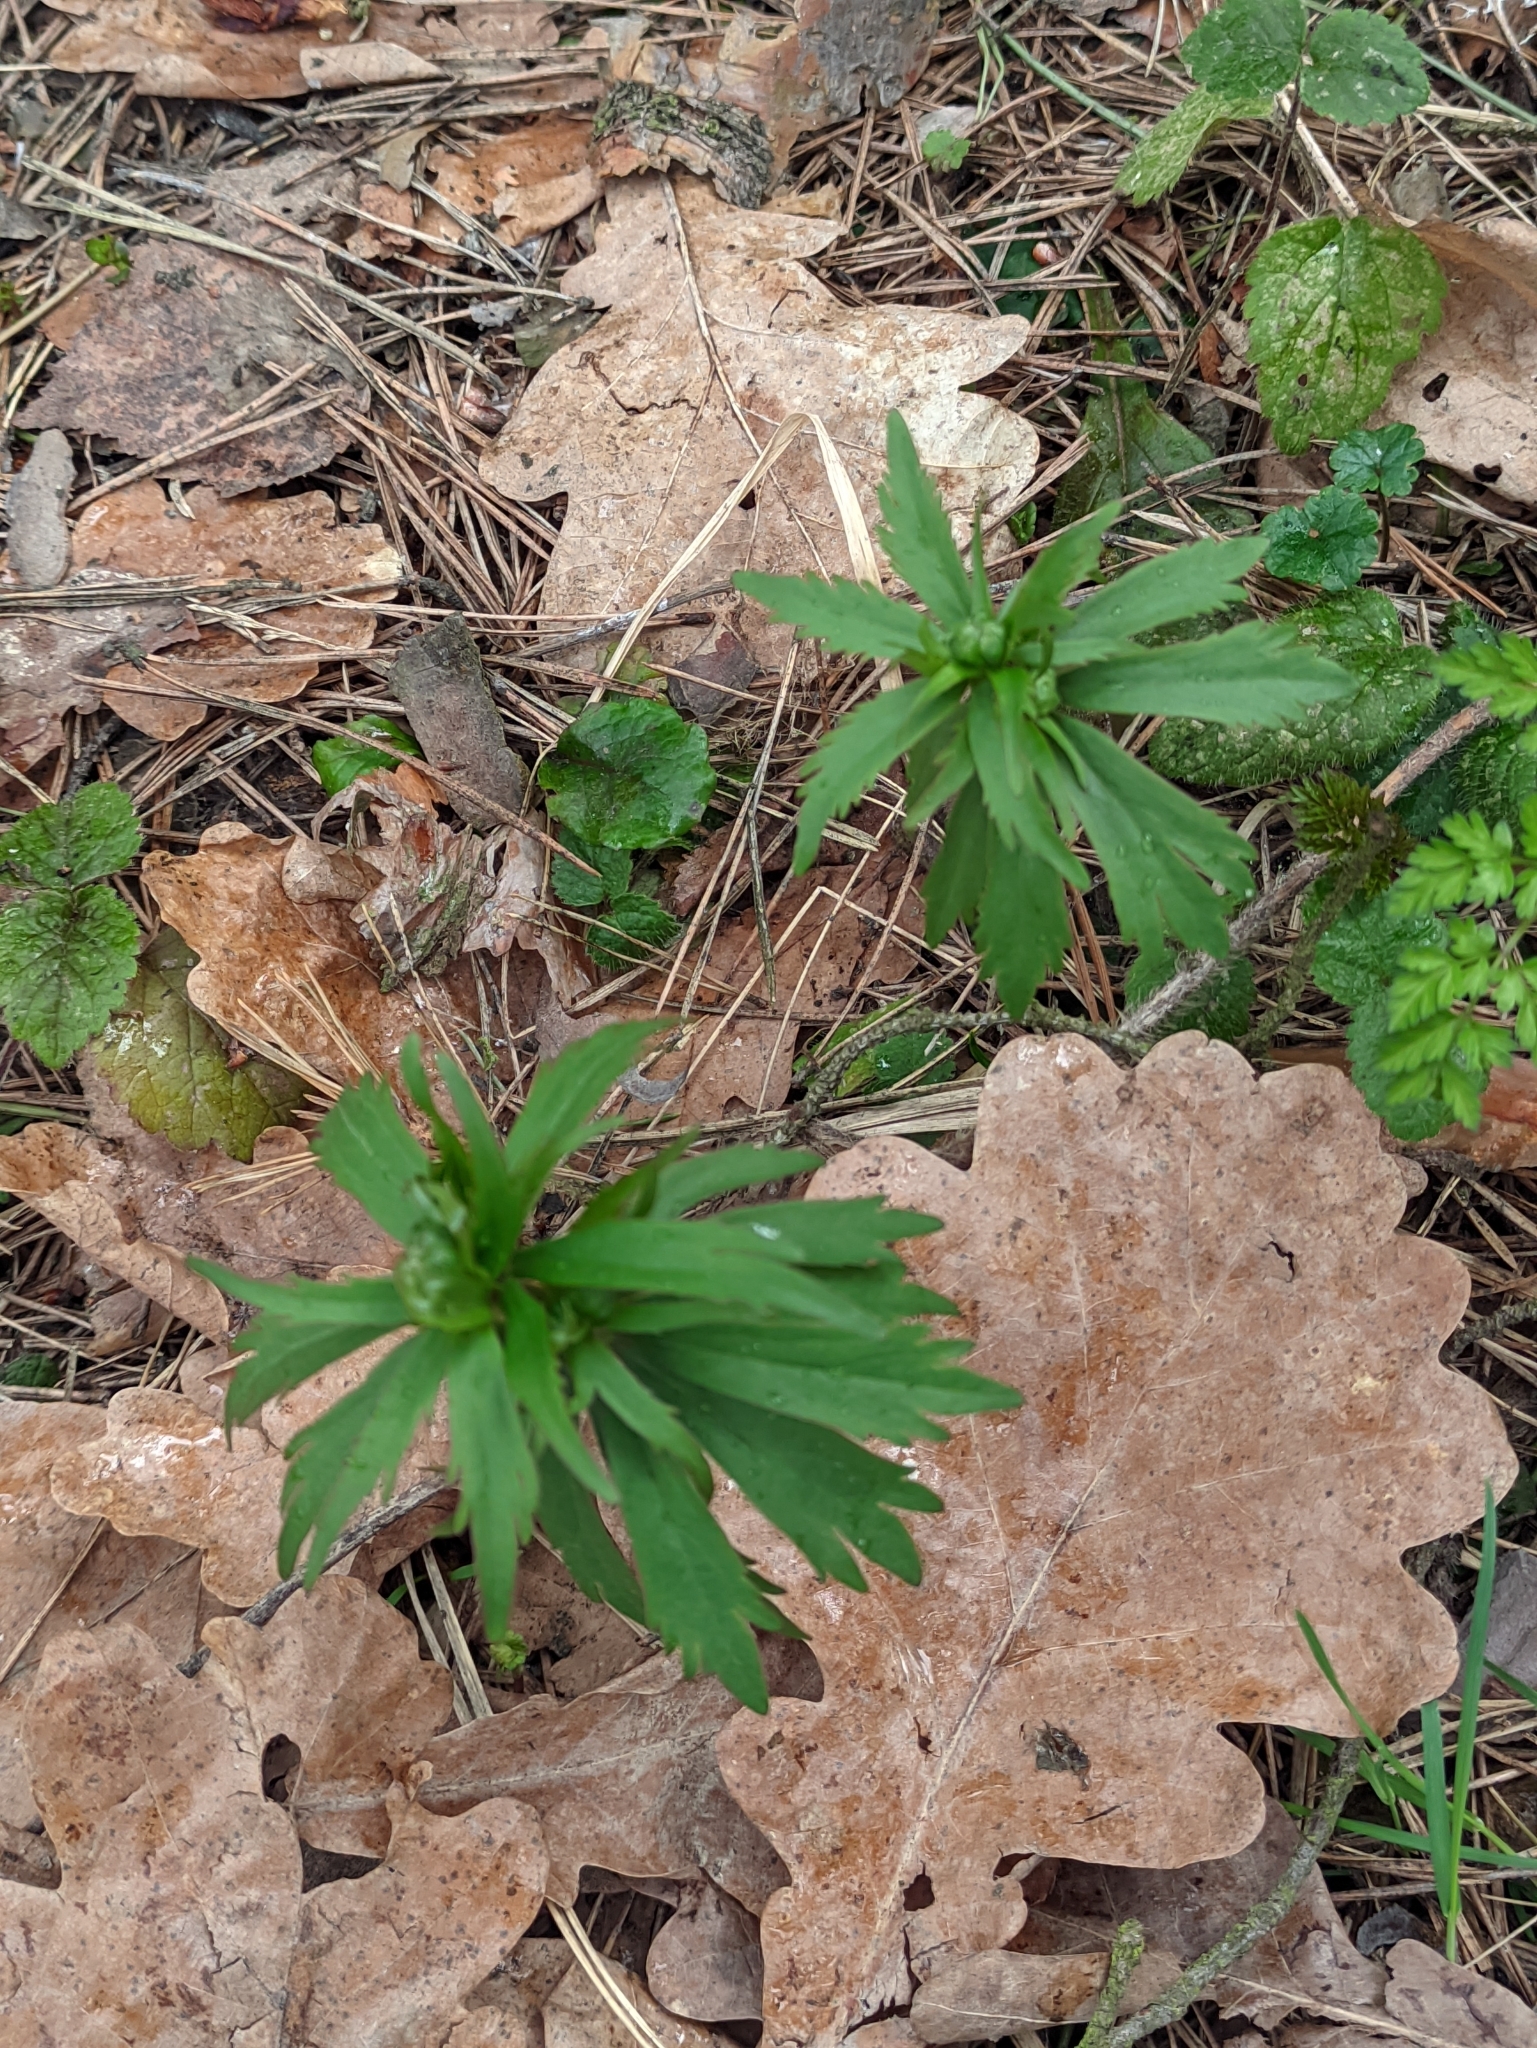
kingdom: Plantae
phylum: Tracheophyta
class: Magnoliopsida
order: Ranunculales
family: Ranunculaceae
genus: Ranunculus
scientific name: Ranunculus cassubicus
